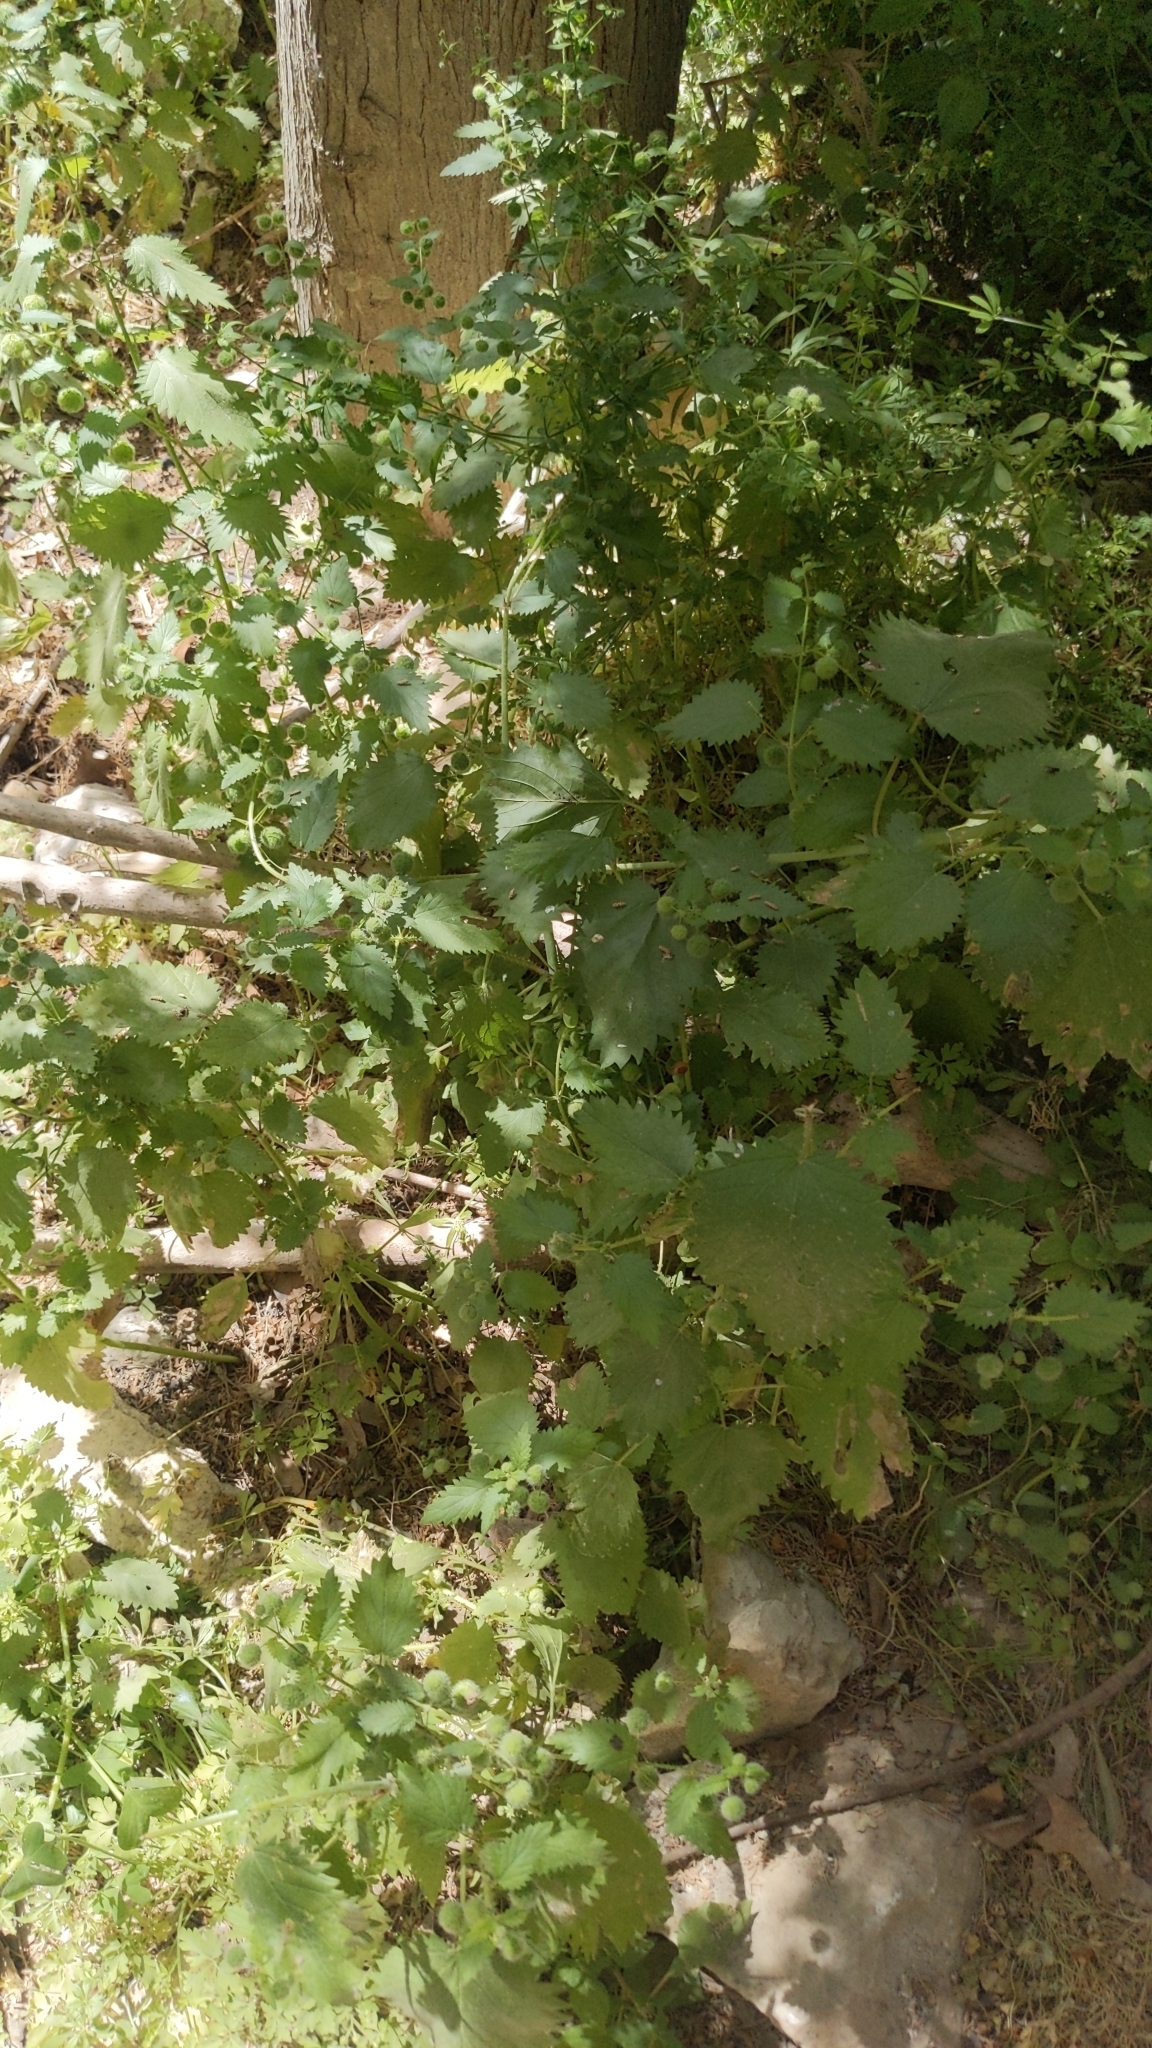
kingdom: Plantae
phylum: Tracheophyta
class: Magnoliopsida
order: Rosales
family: Urticaceae
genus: Urtica
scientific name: Urtica pilulifera
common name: Roman nettle
